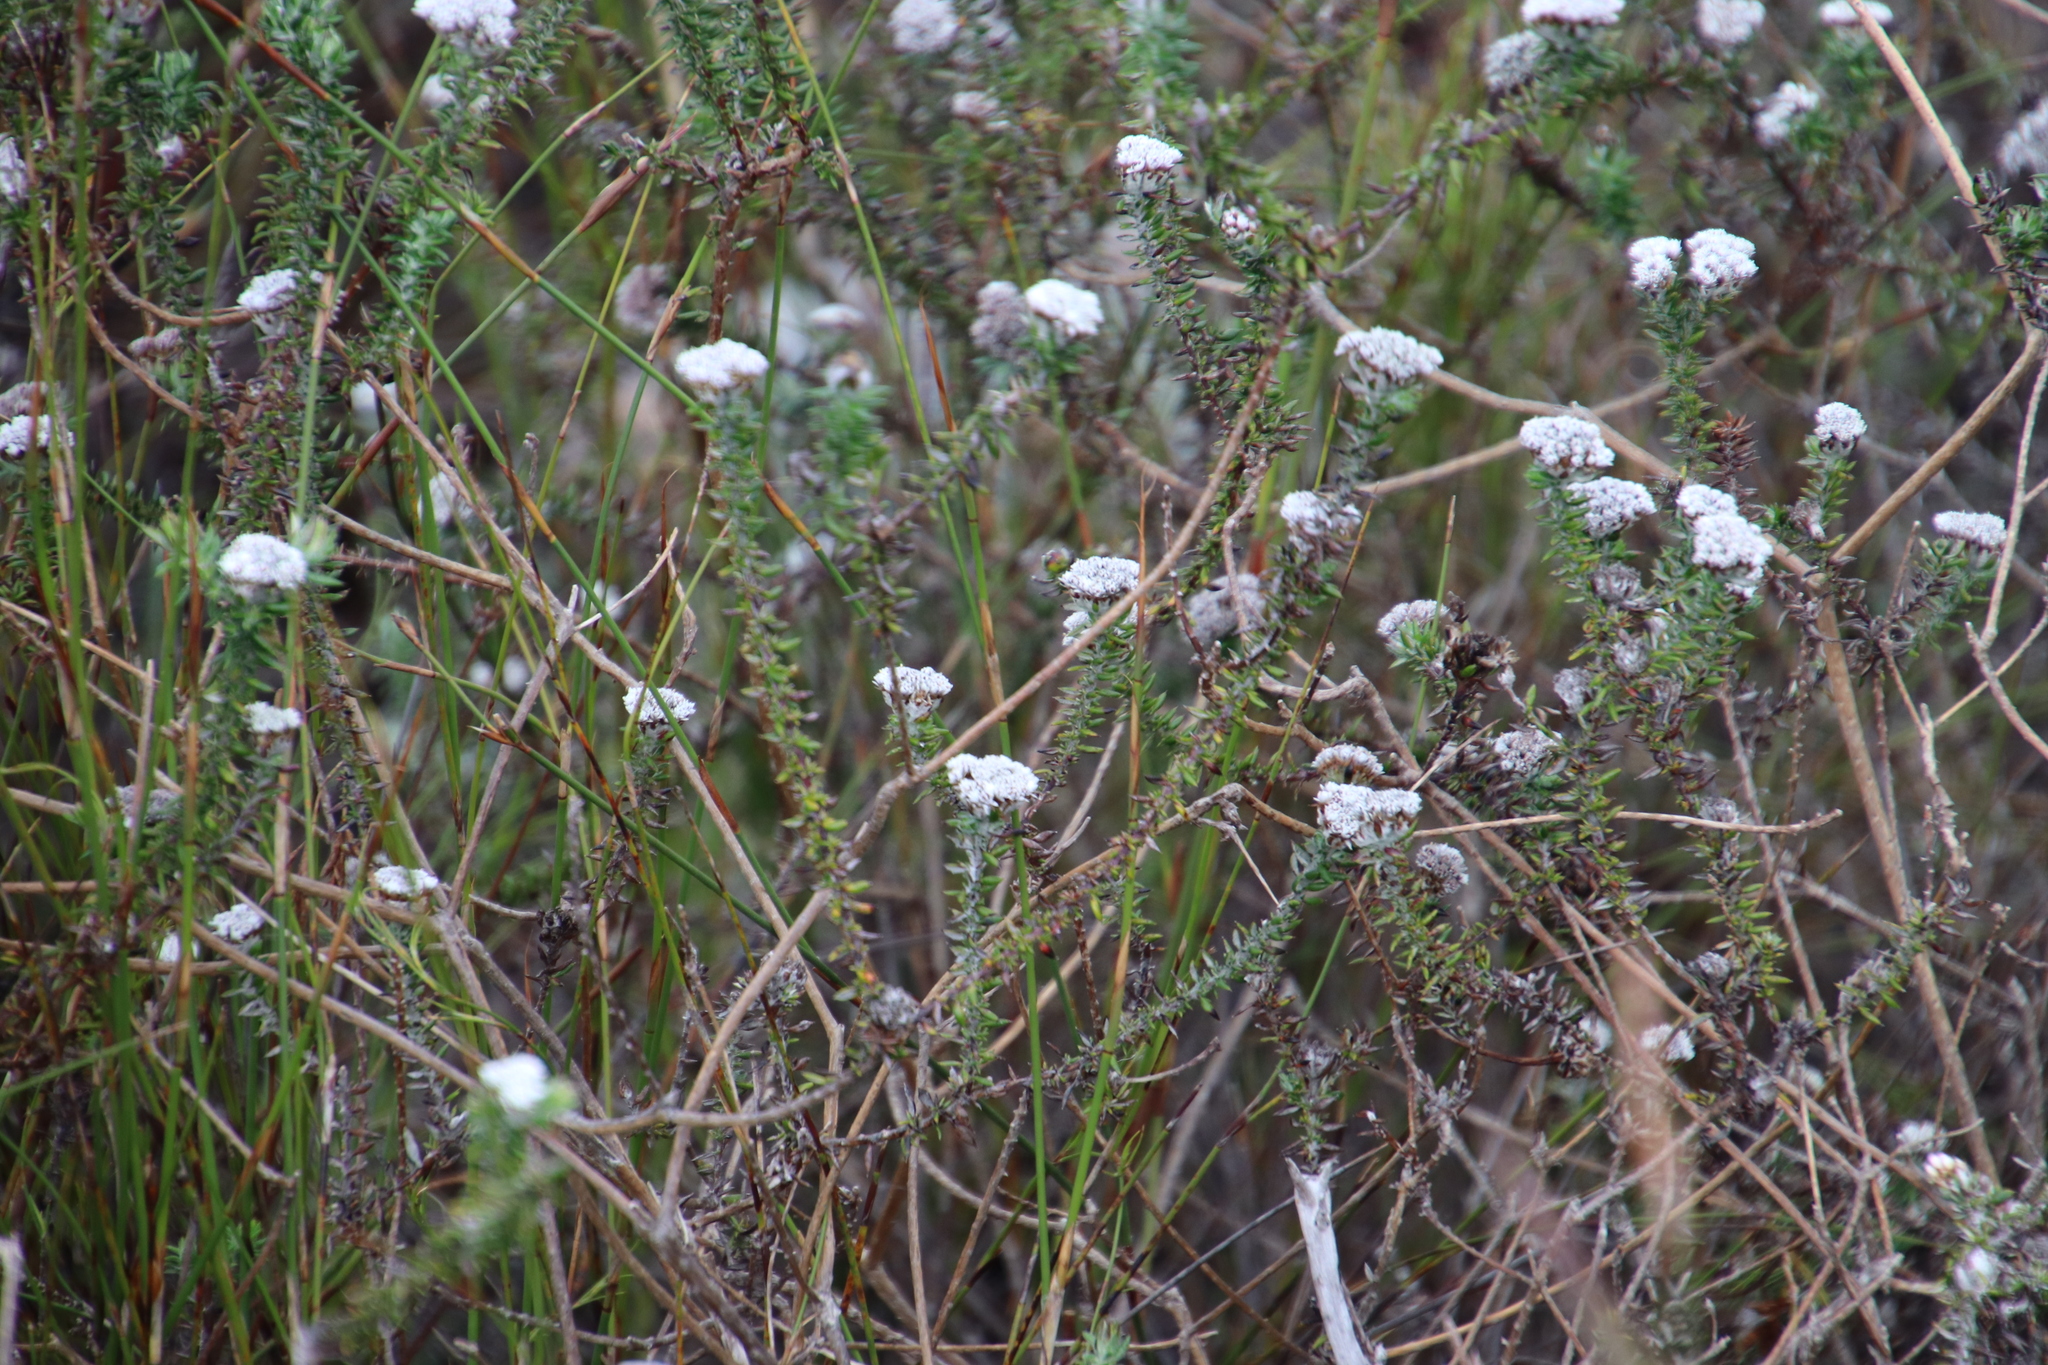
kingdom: Plantae
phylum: Tracheophyta
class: Magnoliopsida
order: Asterales
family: Asteraceae
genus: Metalasia
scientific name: Metalasia densa
